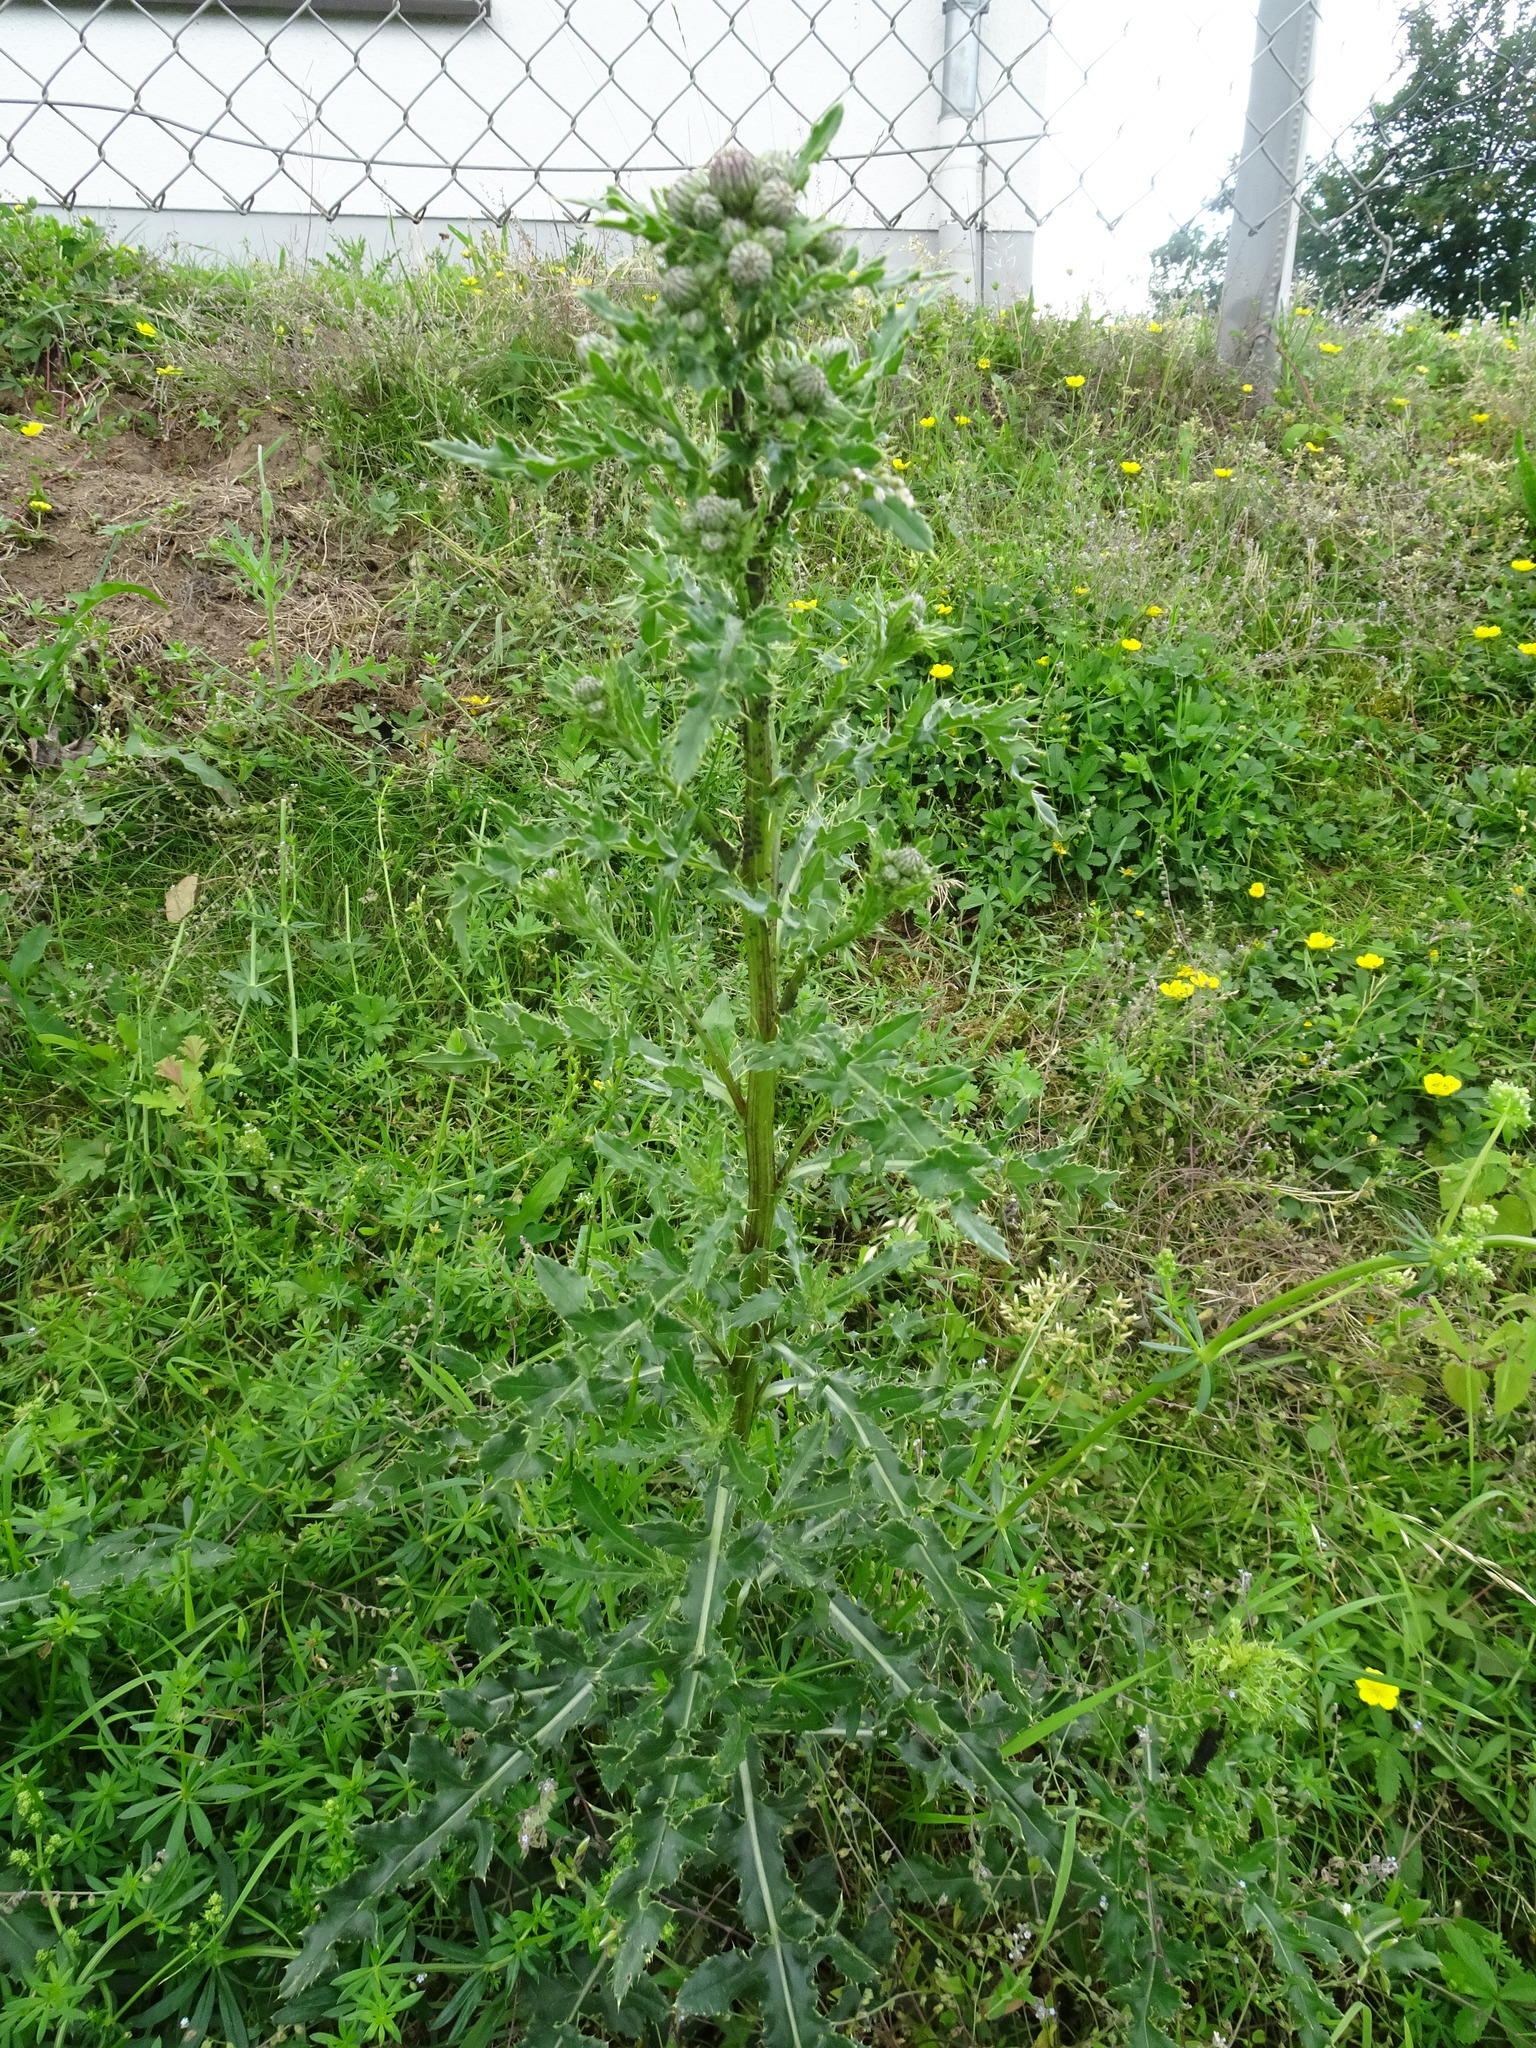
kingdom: Plantae
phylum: Tracheophyta
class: Magnoliopsida
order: Asterales
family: Asteraceae
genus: Cirsium
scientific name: Cirsium arvense
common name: Creeping thistle
